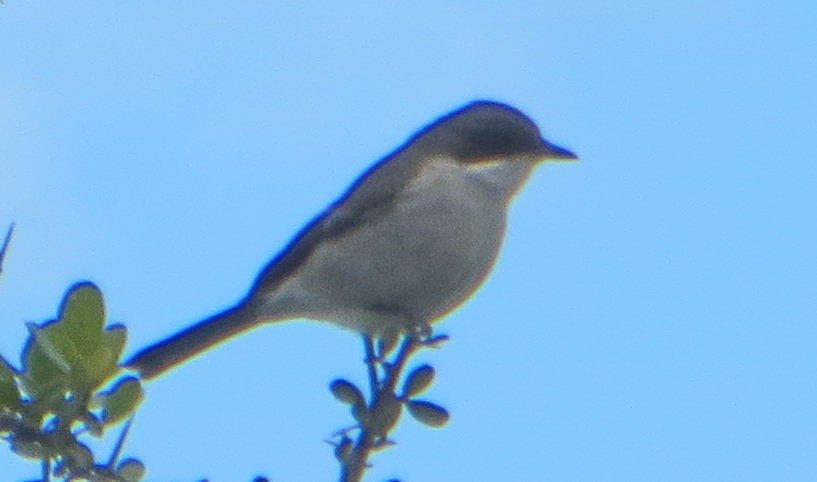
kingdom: Animalia
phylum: Chordata
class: Aves
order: Passeriformes
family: Muscicapidae
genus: Sigelus
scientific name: Sigelus silens
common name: Fiscal flycatcher
